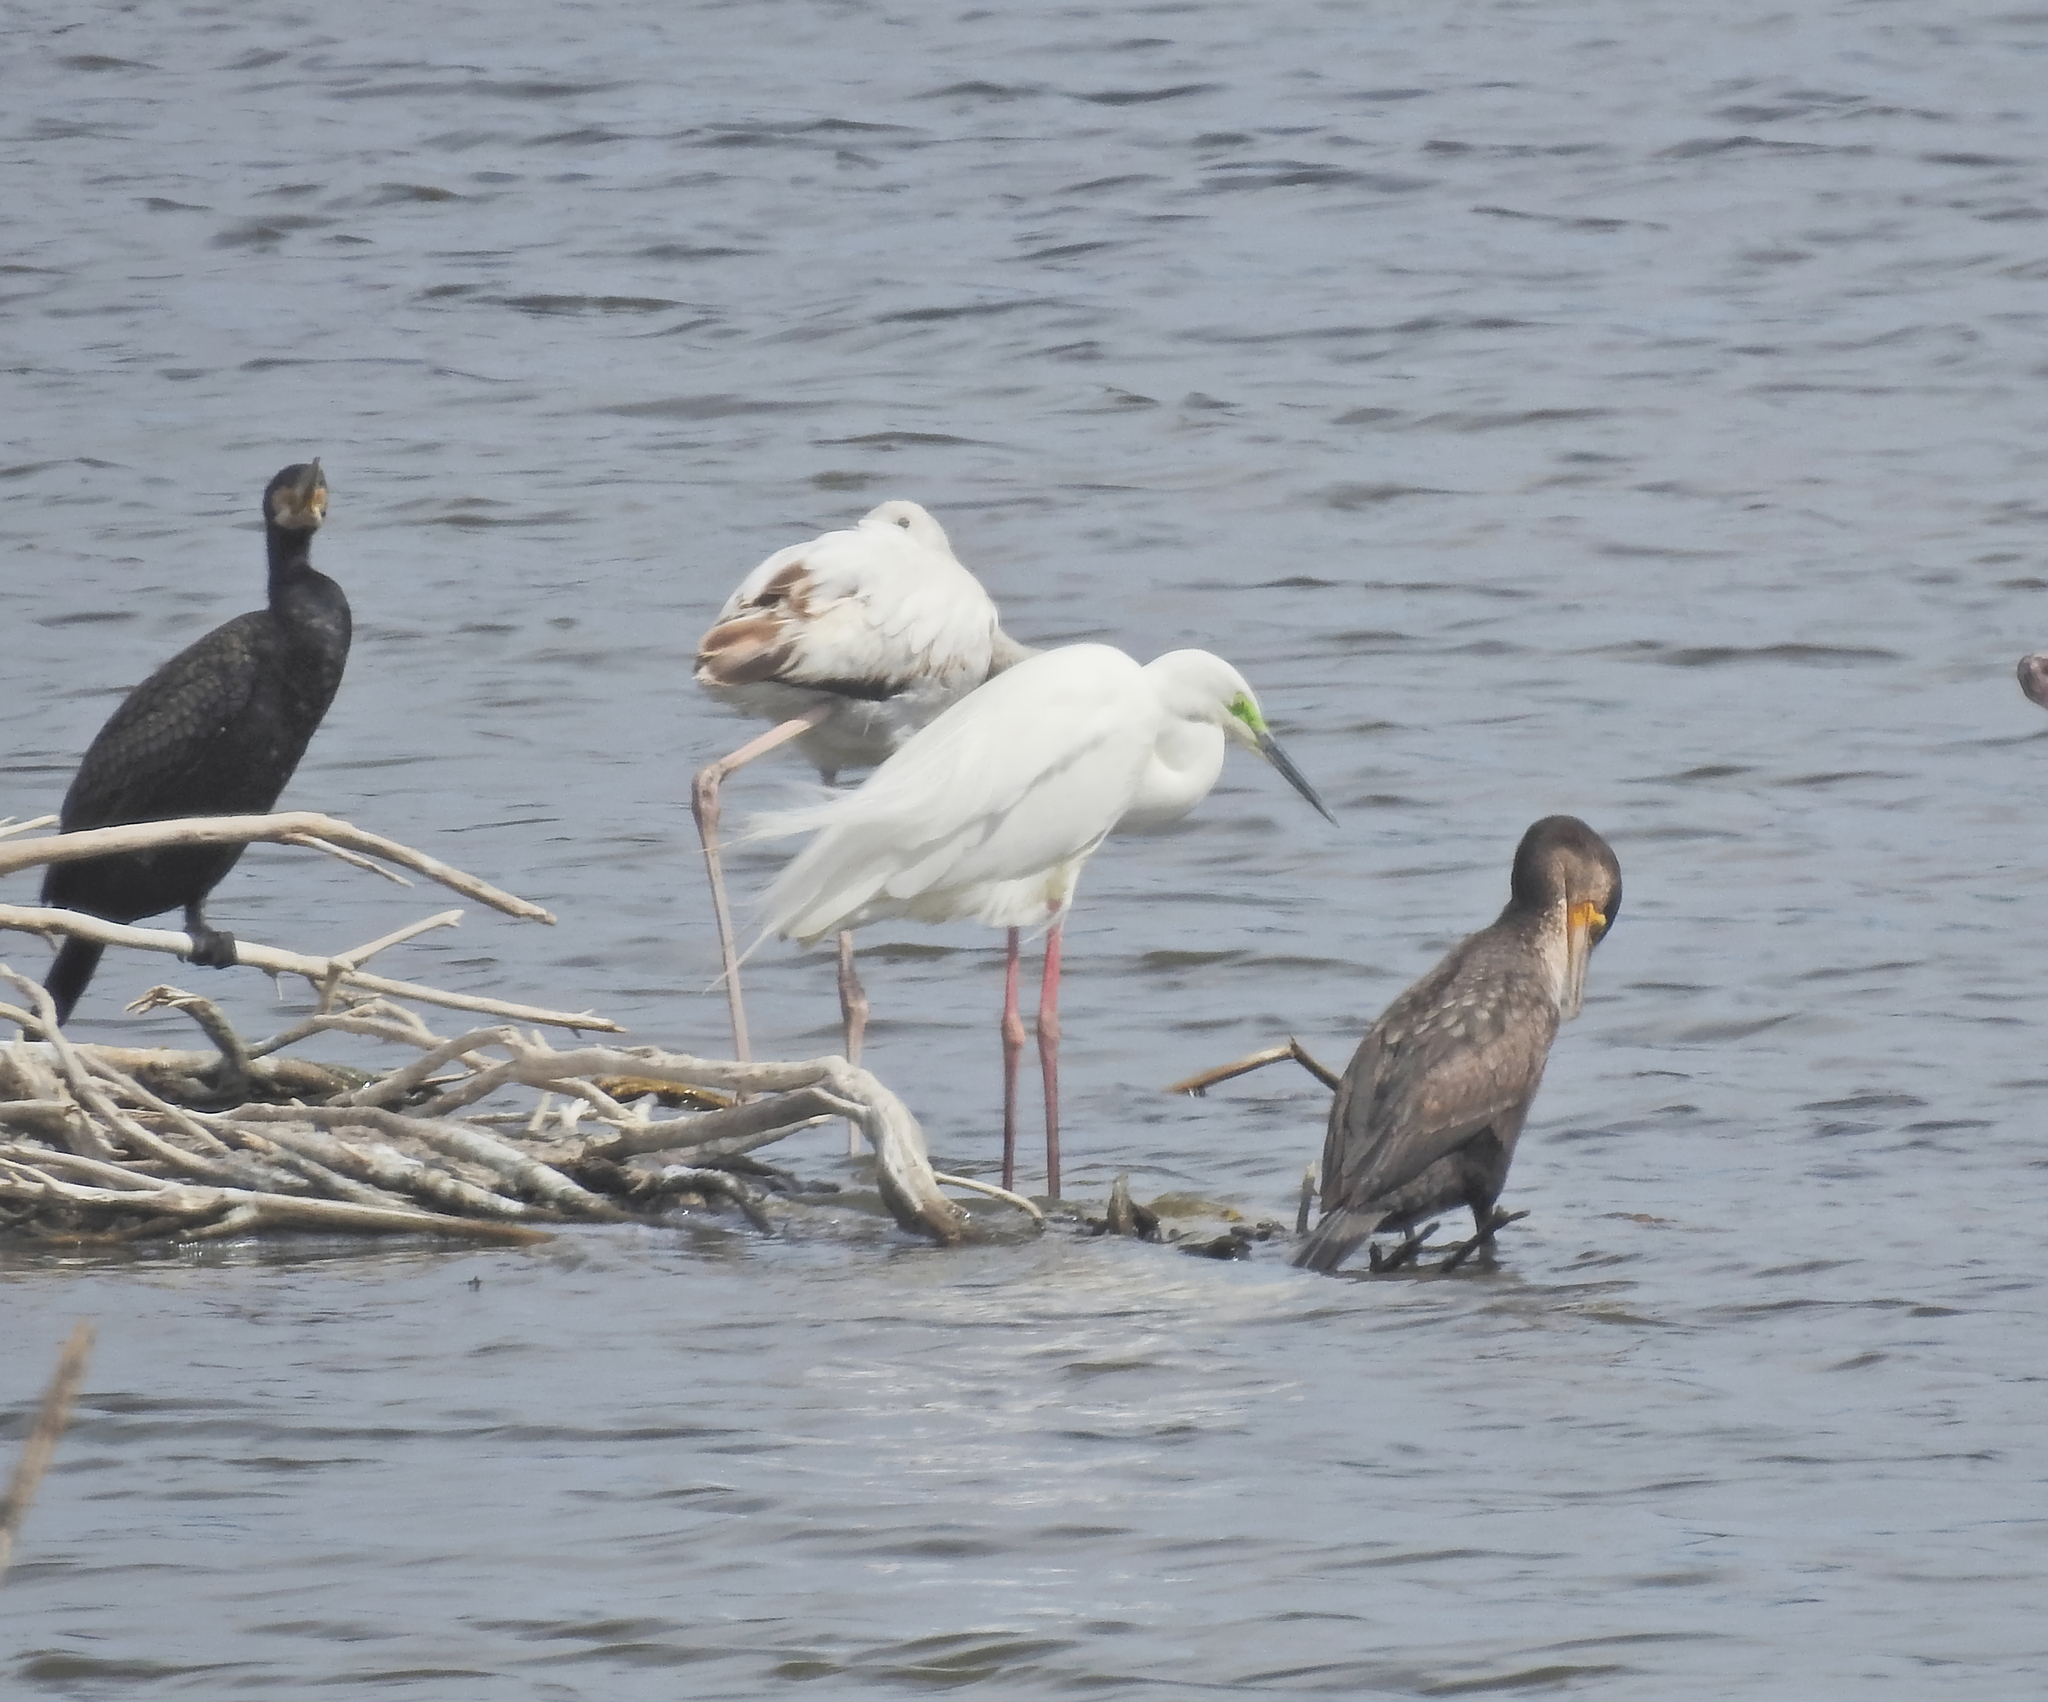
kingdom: Animalia
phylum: Chordata
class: Aves
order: Pelecaniformes
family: Ardeidae
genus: Ardea
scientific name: Ardea alba
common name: Great egret
